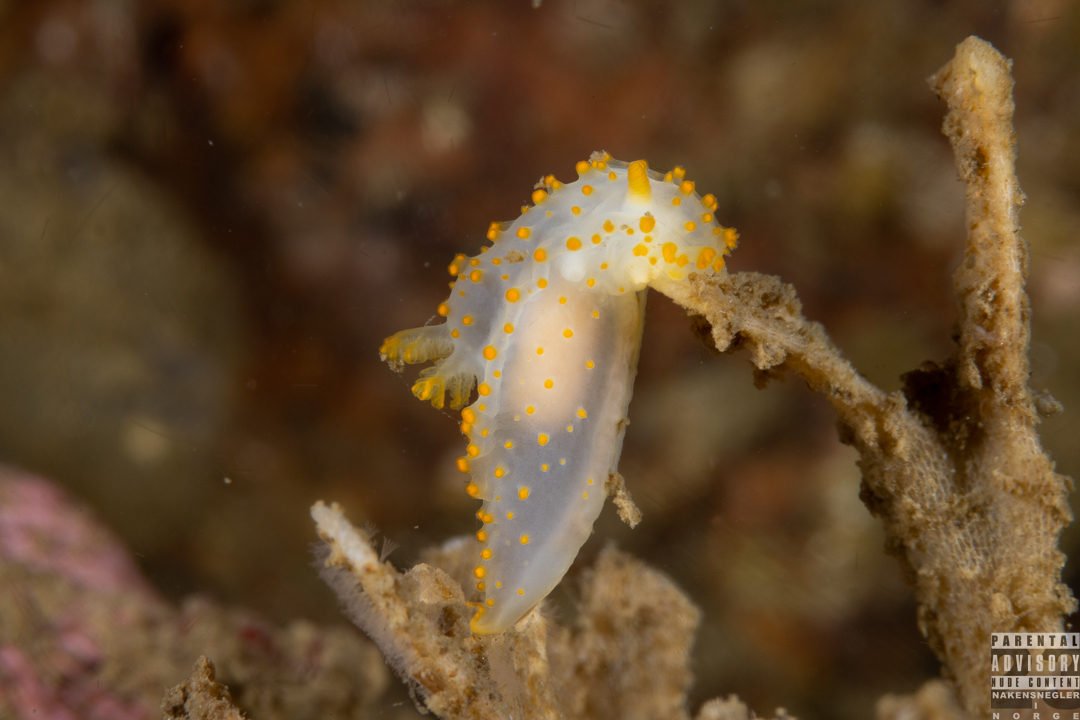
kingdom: Animalia
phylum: Mollusca
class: Gastropoda
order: Nudibranchia
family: Polyceridae
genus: Crimora
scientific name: Crimora papillata
